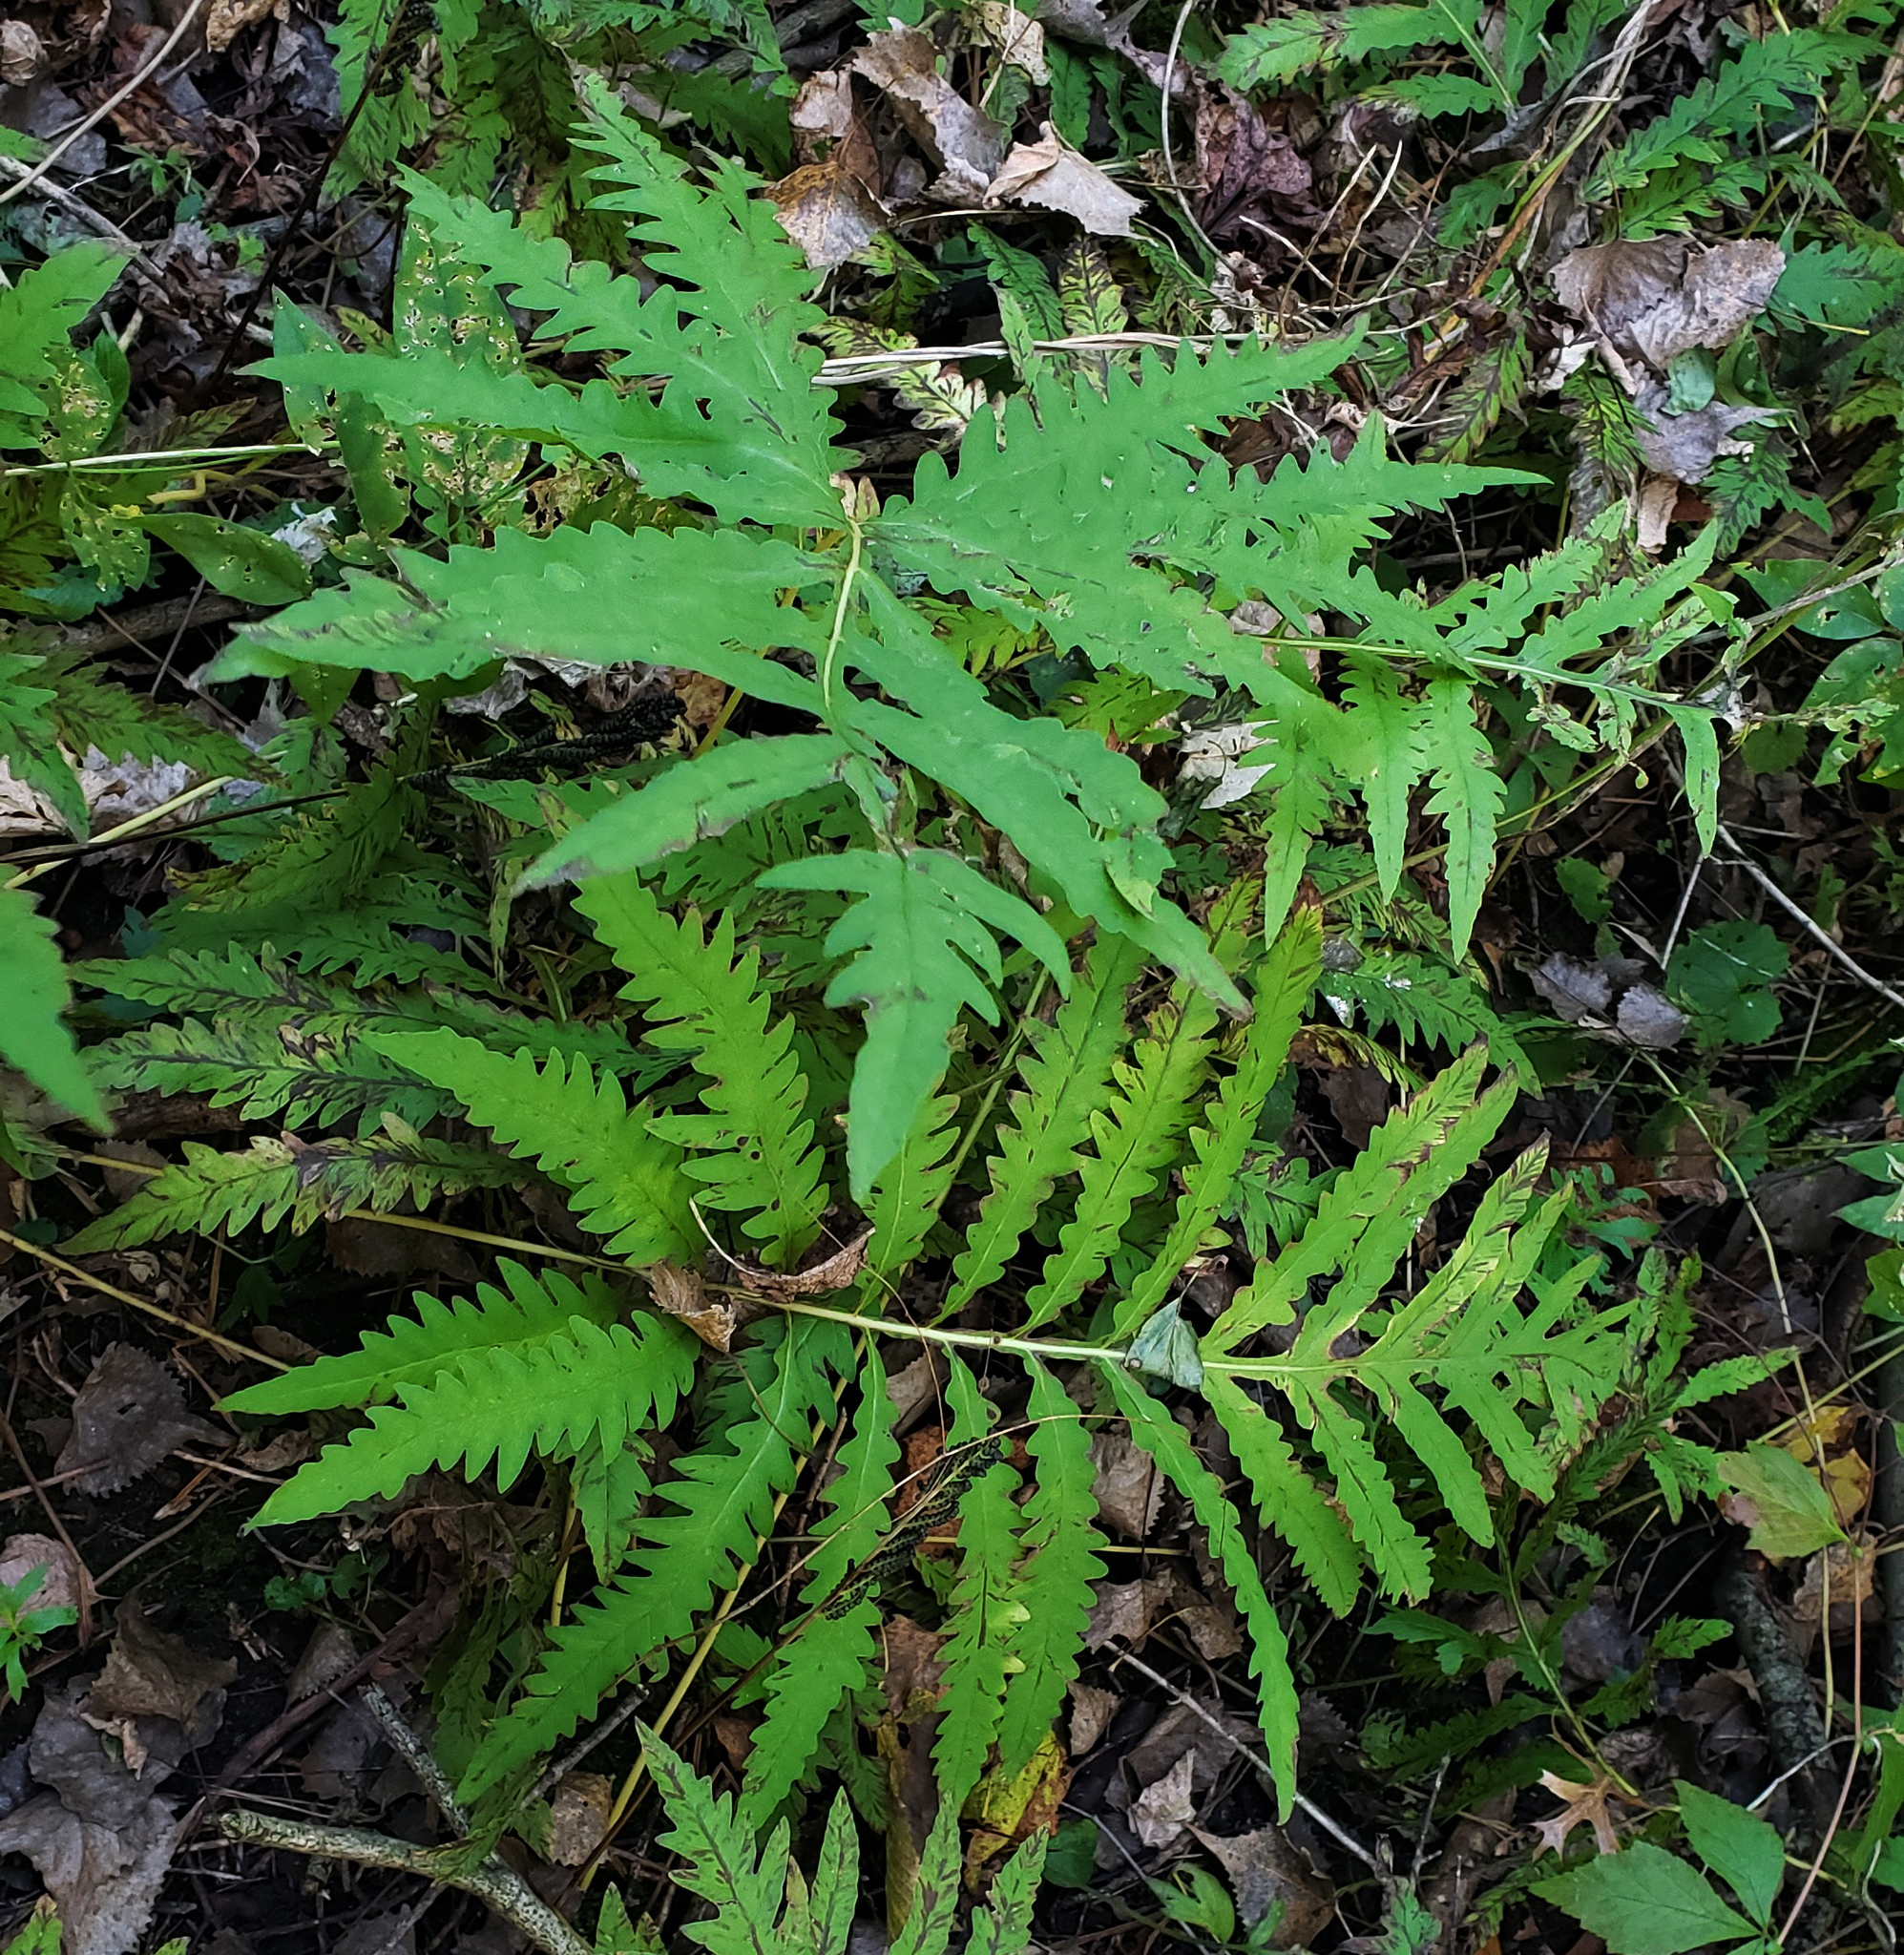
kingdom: Plantae
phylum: Tracheophyta
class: Polypodiopsida
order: Polypodiales
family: Onocleaceae
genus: Onoclea
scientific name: Onoclea sensibilis
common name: Sensitive fern
